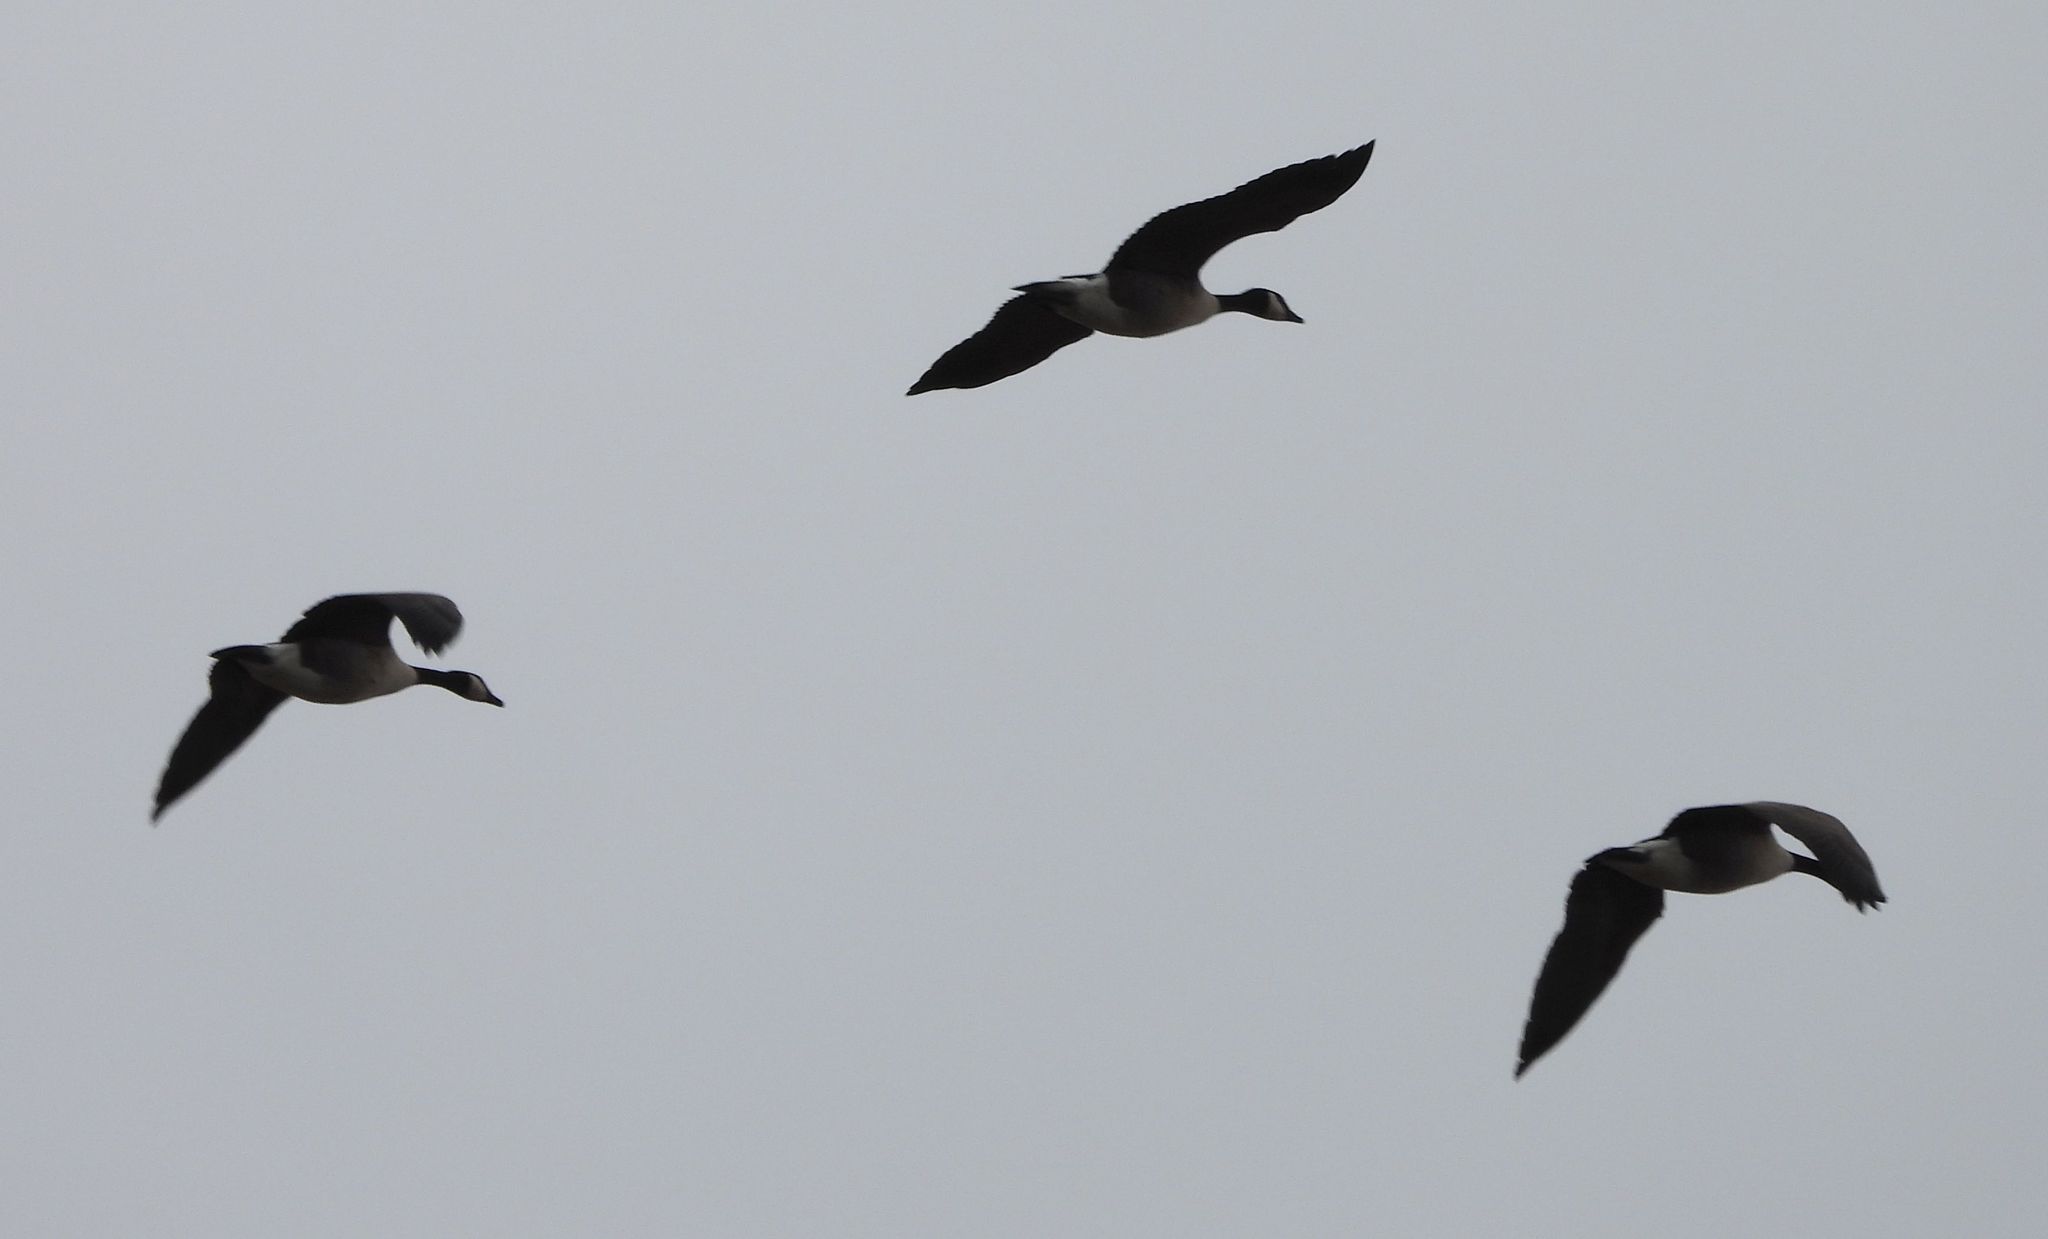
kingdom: Animalia
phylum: Chordata
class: Aves
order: Anseriformes
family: Anatidae
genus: Branta
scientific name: Branta canadensis
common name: Canada goose
